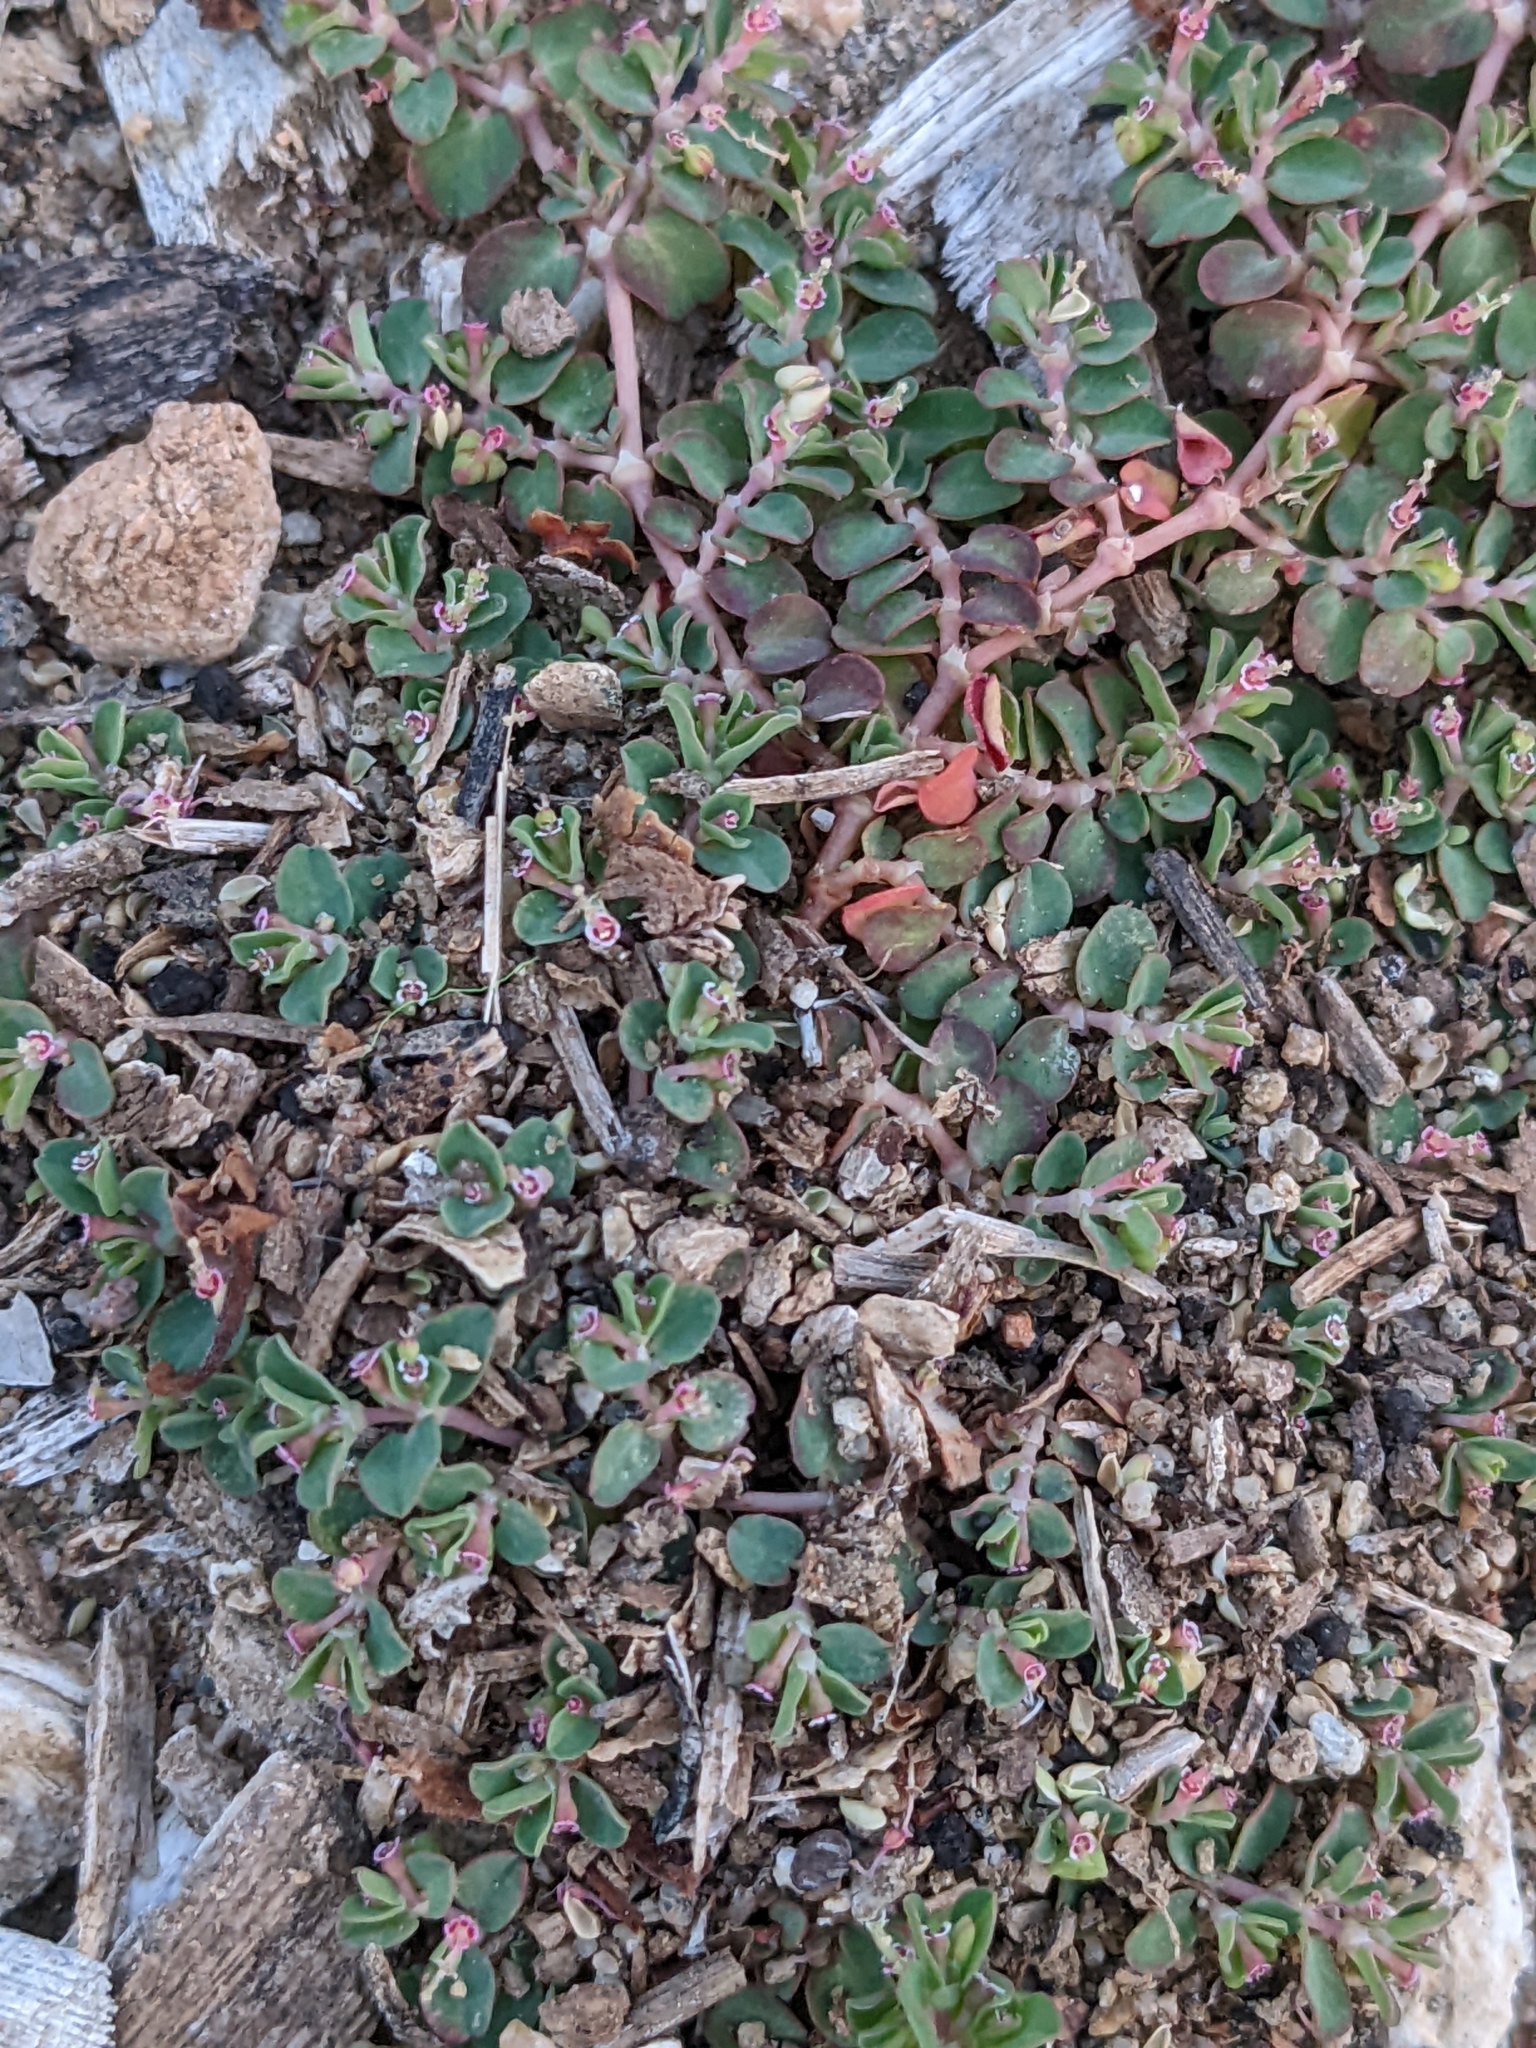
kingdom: Plantae
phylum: Tracheophyta
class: Magnoliopsida
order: Malpighiales
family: Euphorbiaceae
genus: Euphorbia
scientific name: Euphorbia serpens
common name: Matted sandmat
